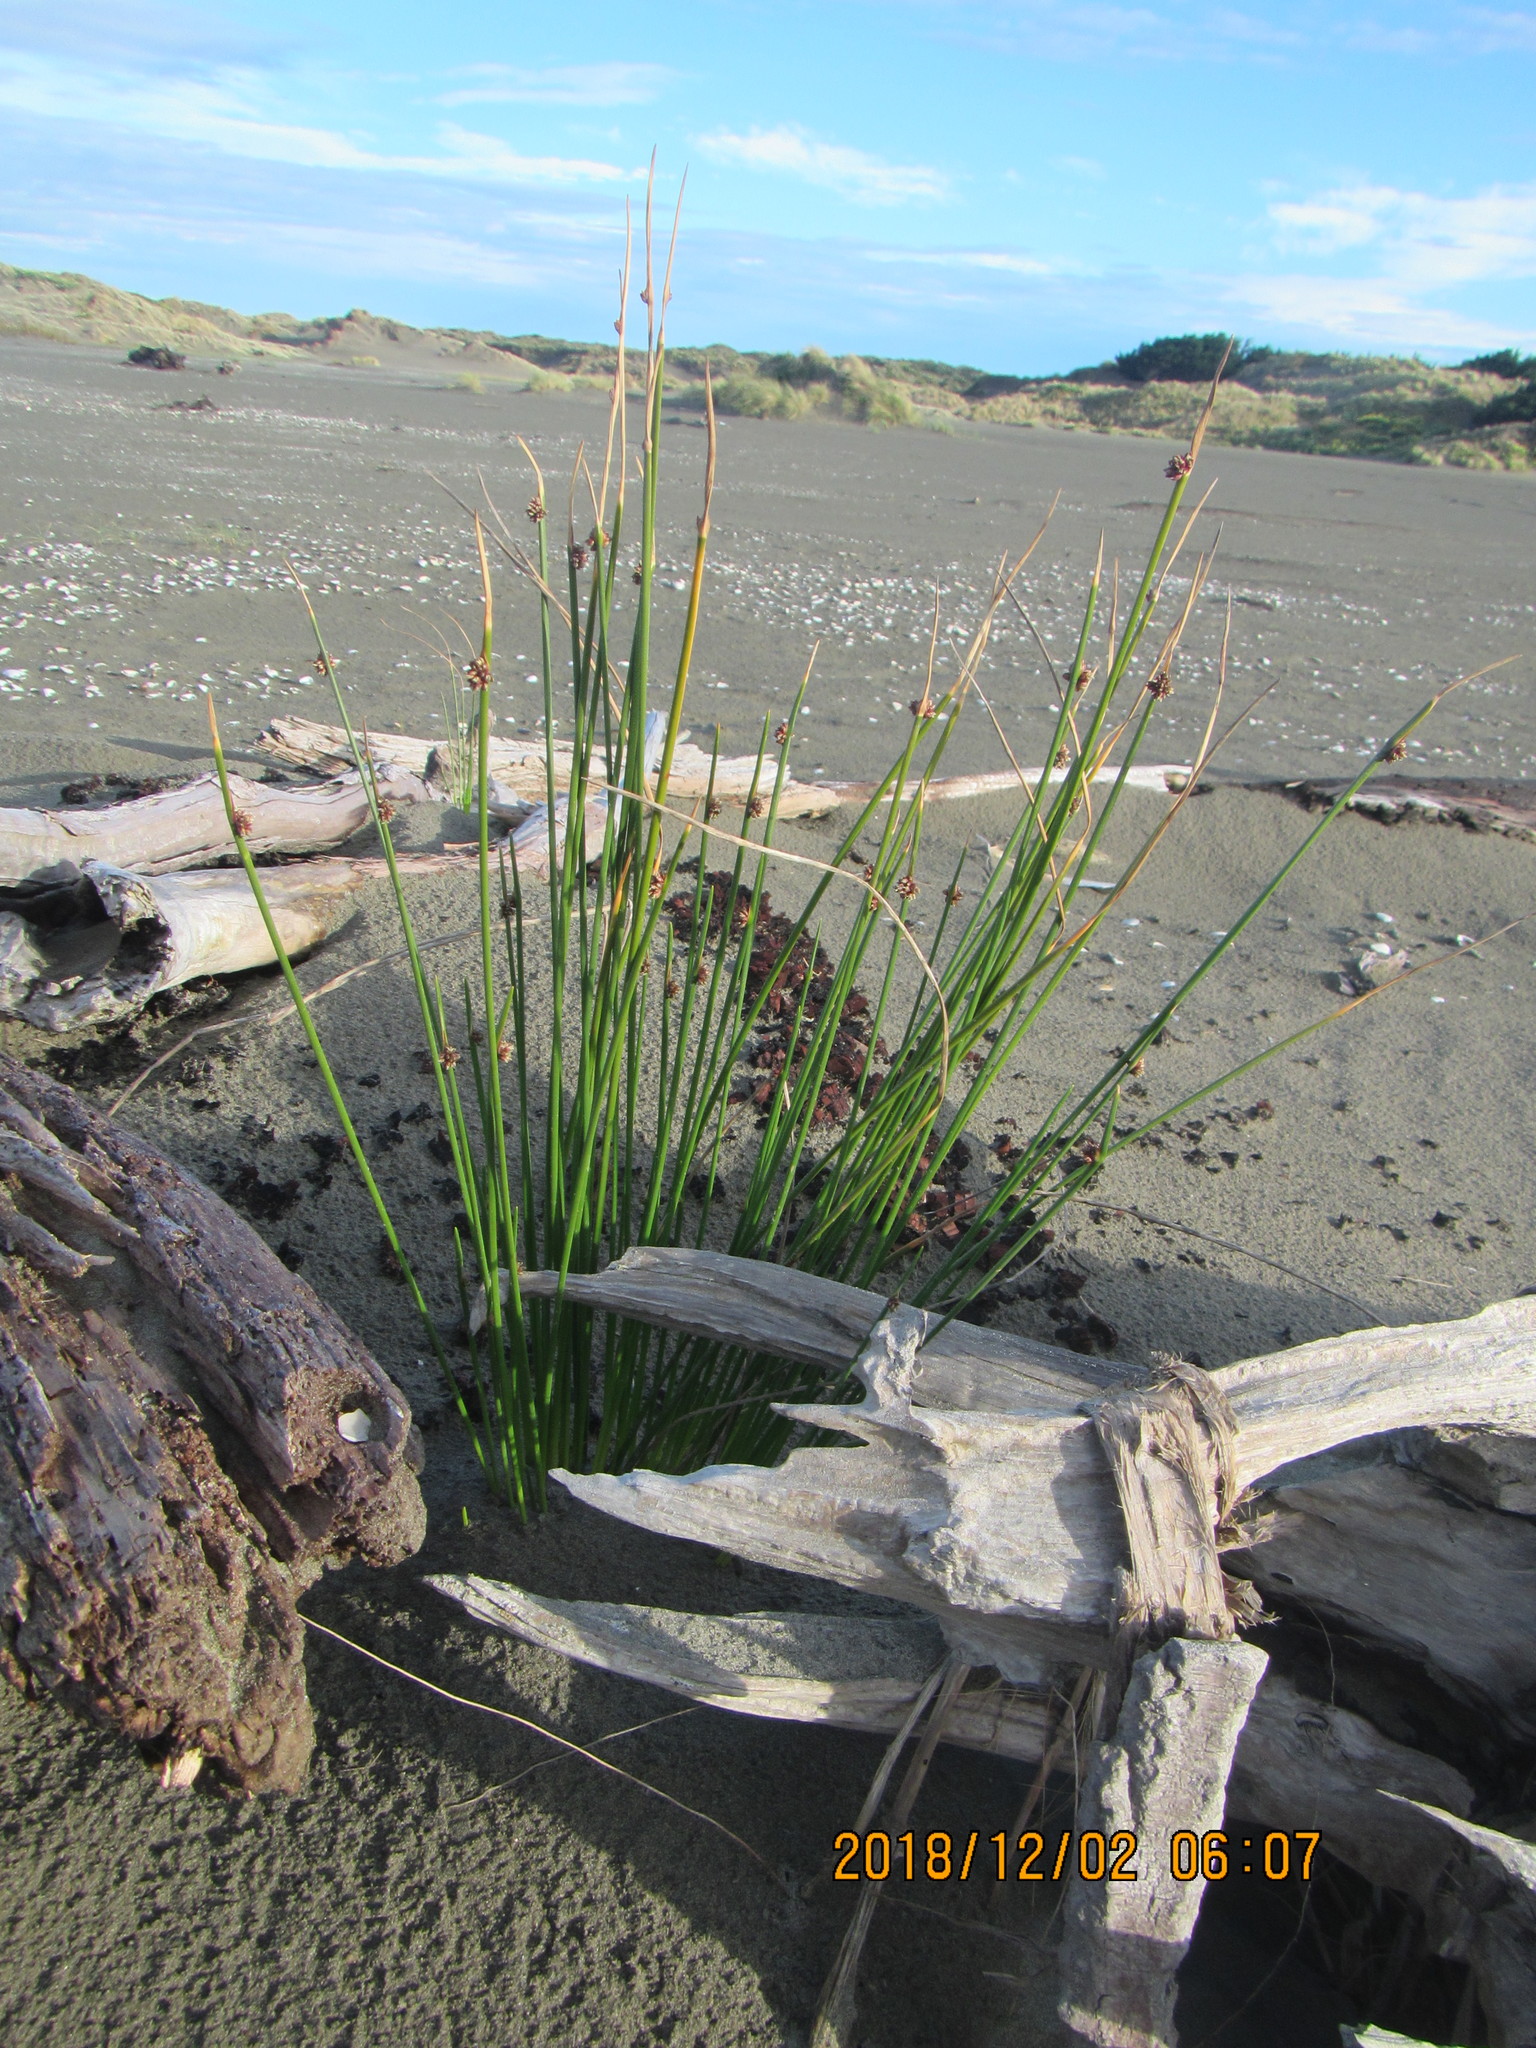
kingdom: Plantae
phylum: Tracheophyta
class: Liliopsida
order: Poales
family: Cyperaceae
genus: Ficinia
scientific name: Ficinia nodosa
